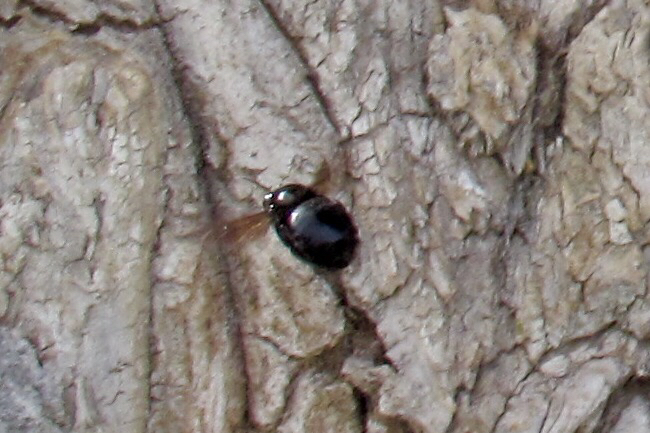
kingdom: Animalia
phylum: Arthropoda
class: Insecta
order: Hymenoptera
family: Apidae
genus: Xylocopa
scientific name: Xylocopa sonorina
